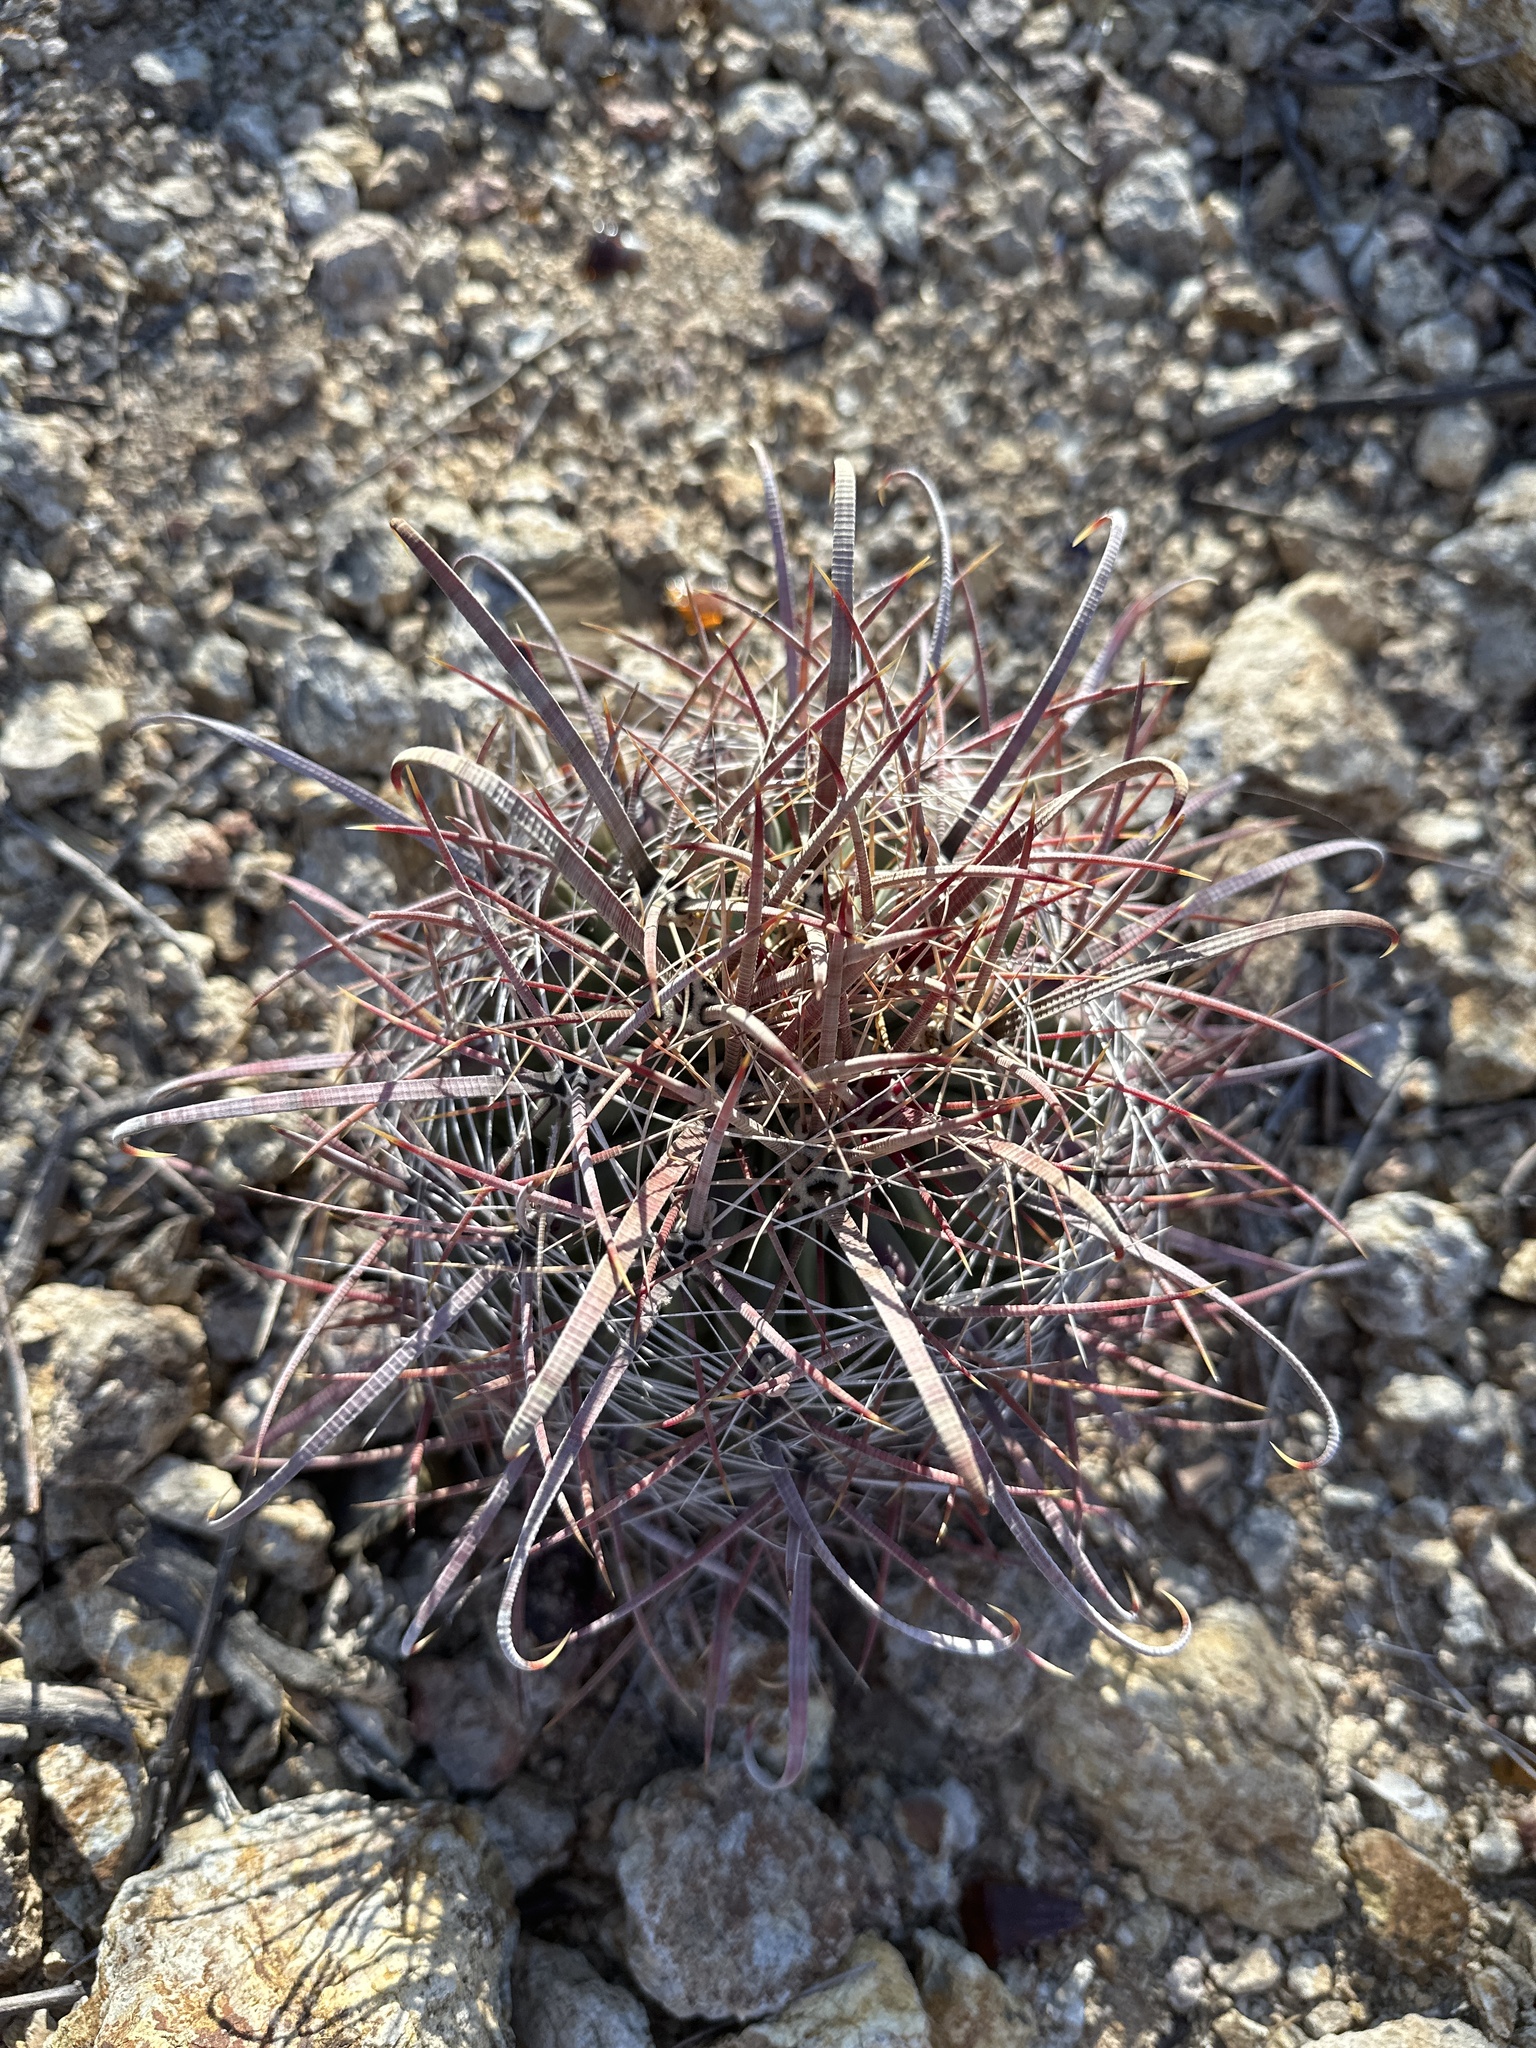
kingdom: Plantae
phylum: Tracheophyta
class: Magnoliopsida
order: Caryophyllales
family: Cactaceae
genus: Ferocactus
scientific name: Ferocactus wislizeni
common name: Candy barrel cactus
